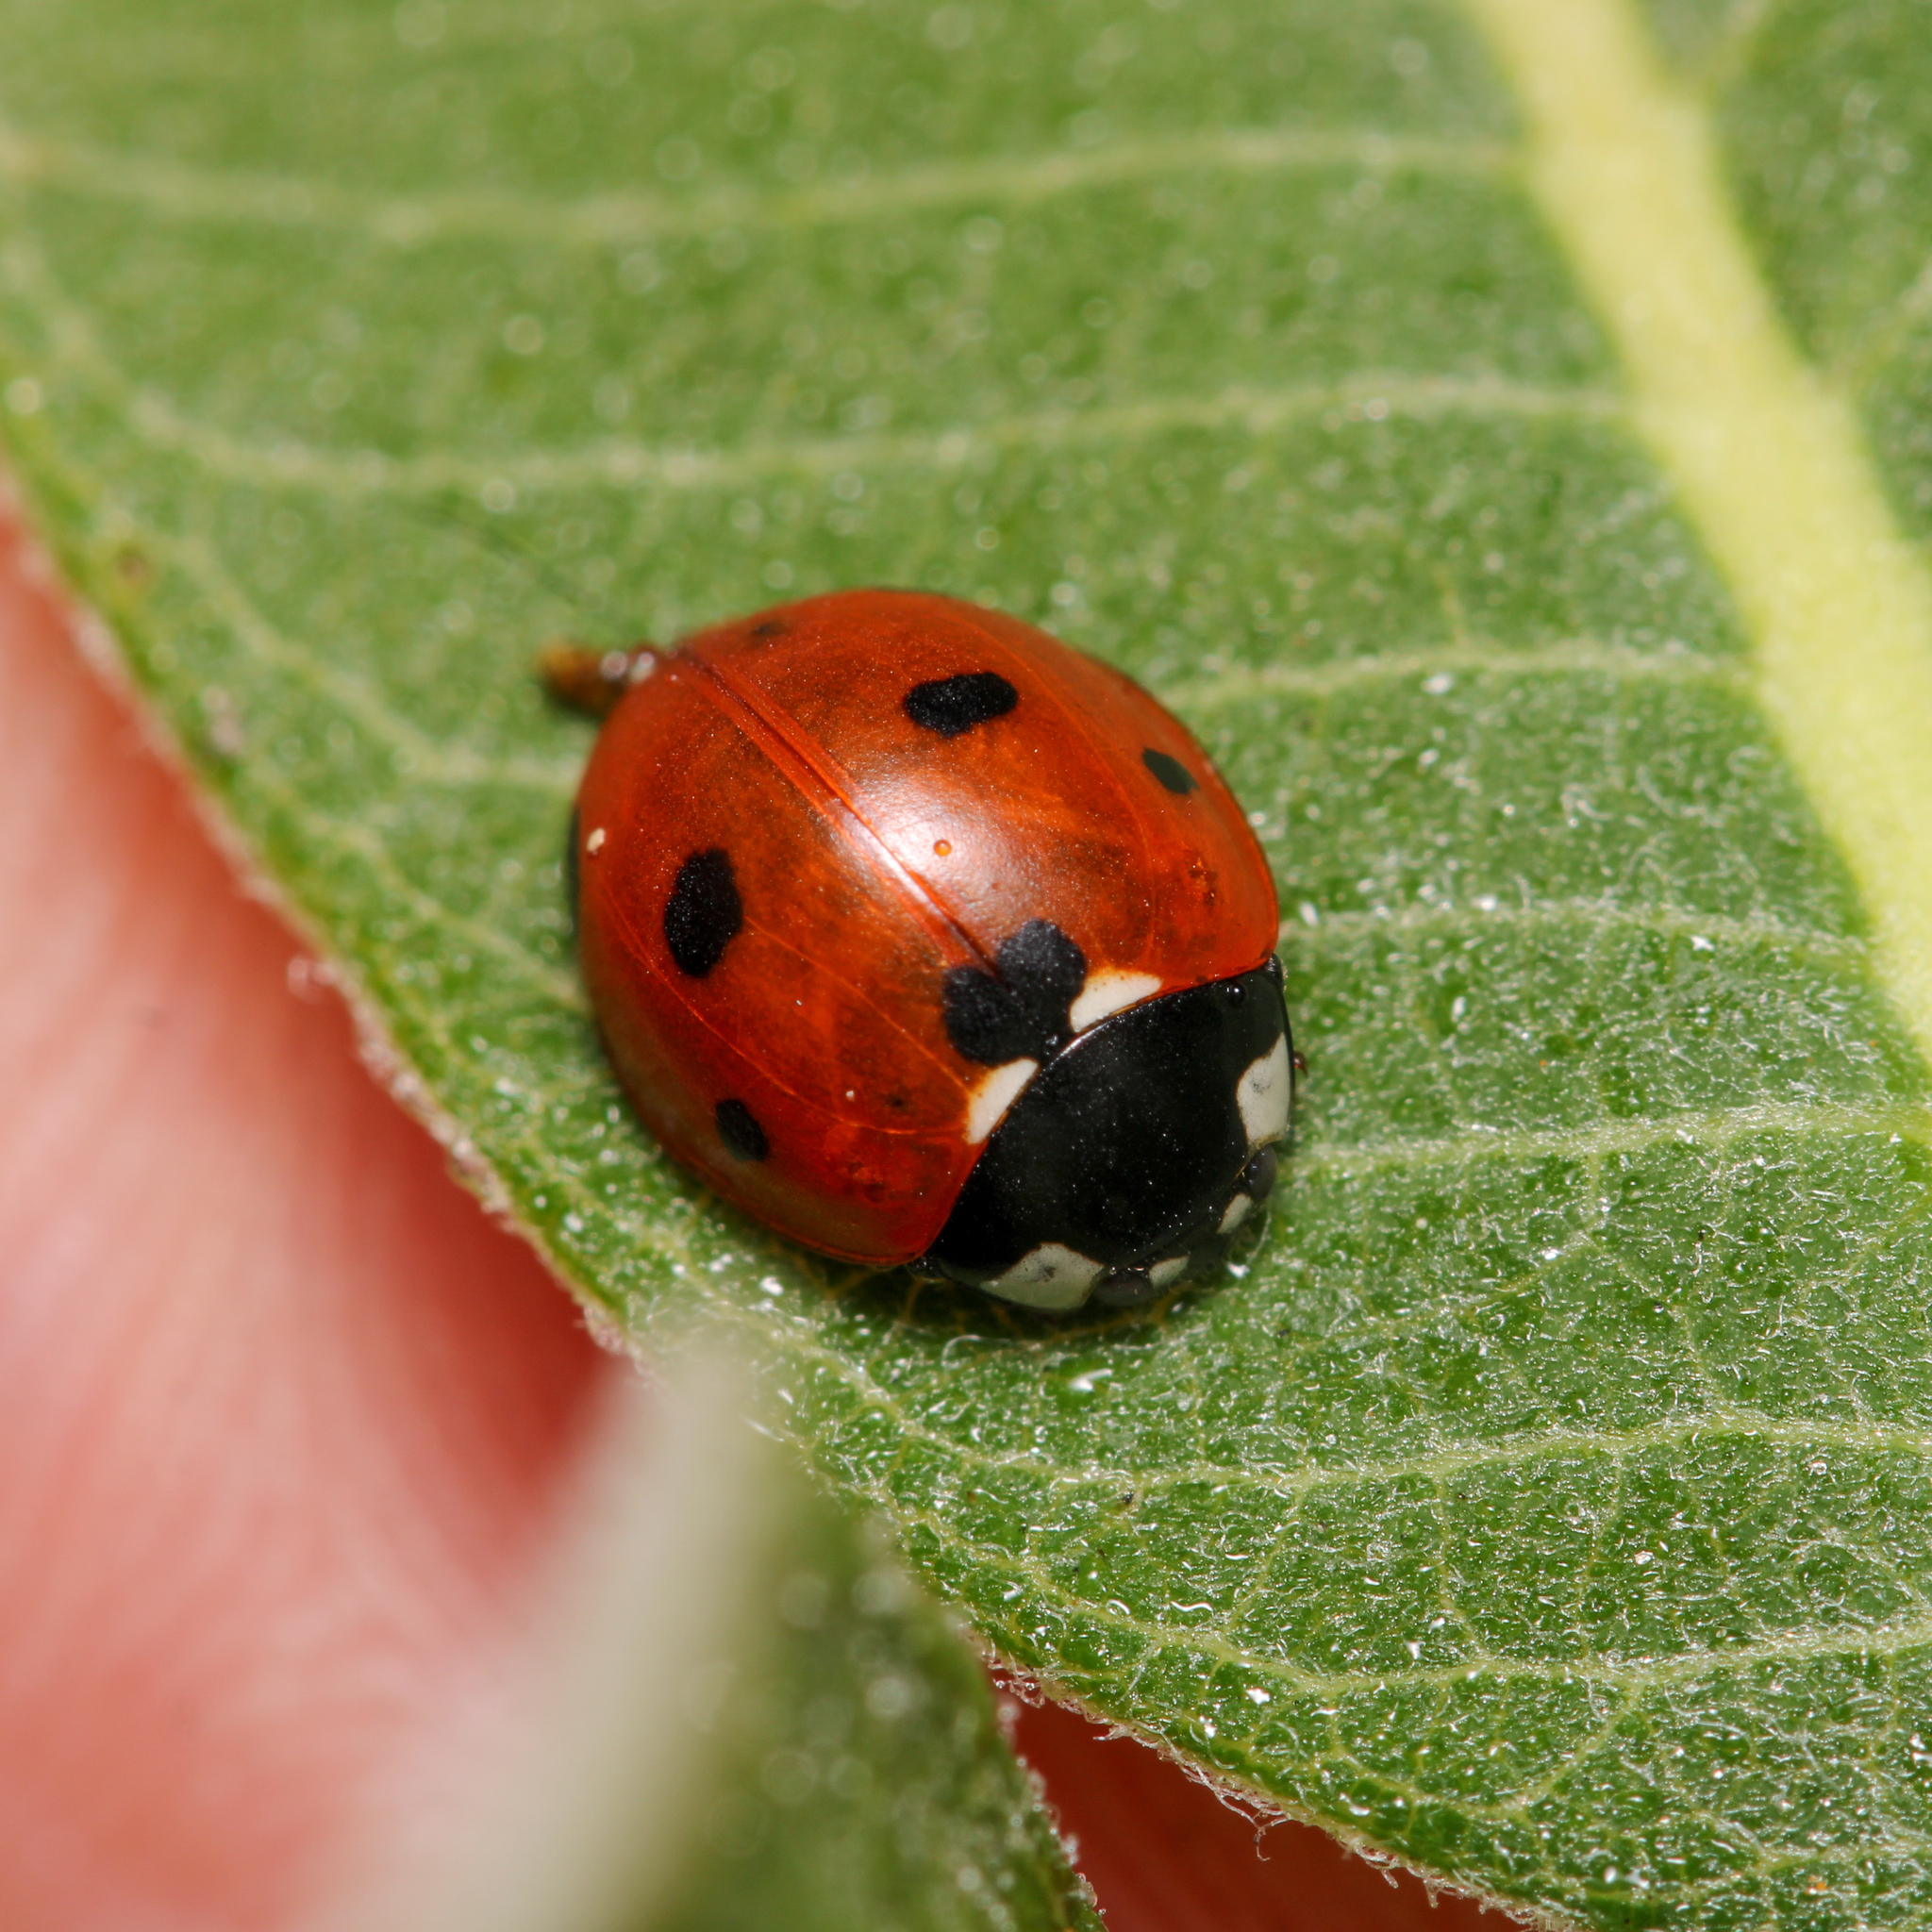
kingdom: Animalia
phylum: Arthropoda
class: Insecta
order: Coleoptera
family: Coccinellidae
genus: Coccinella
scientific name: Coccinella septempunctata
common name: Sevenspotted lady beetle
